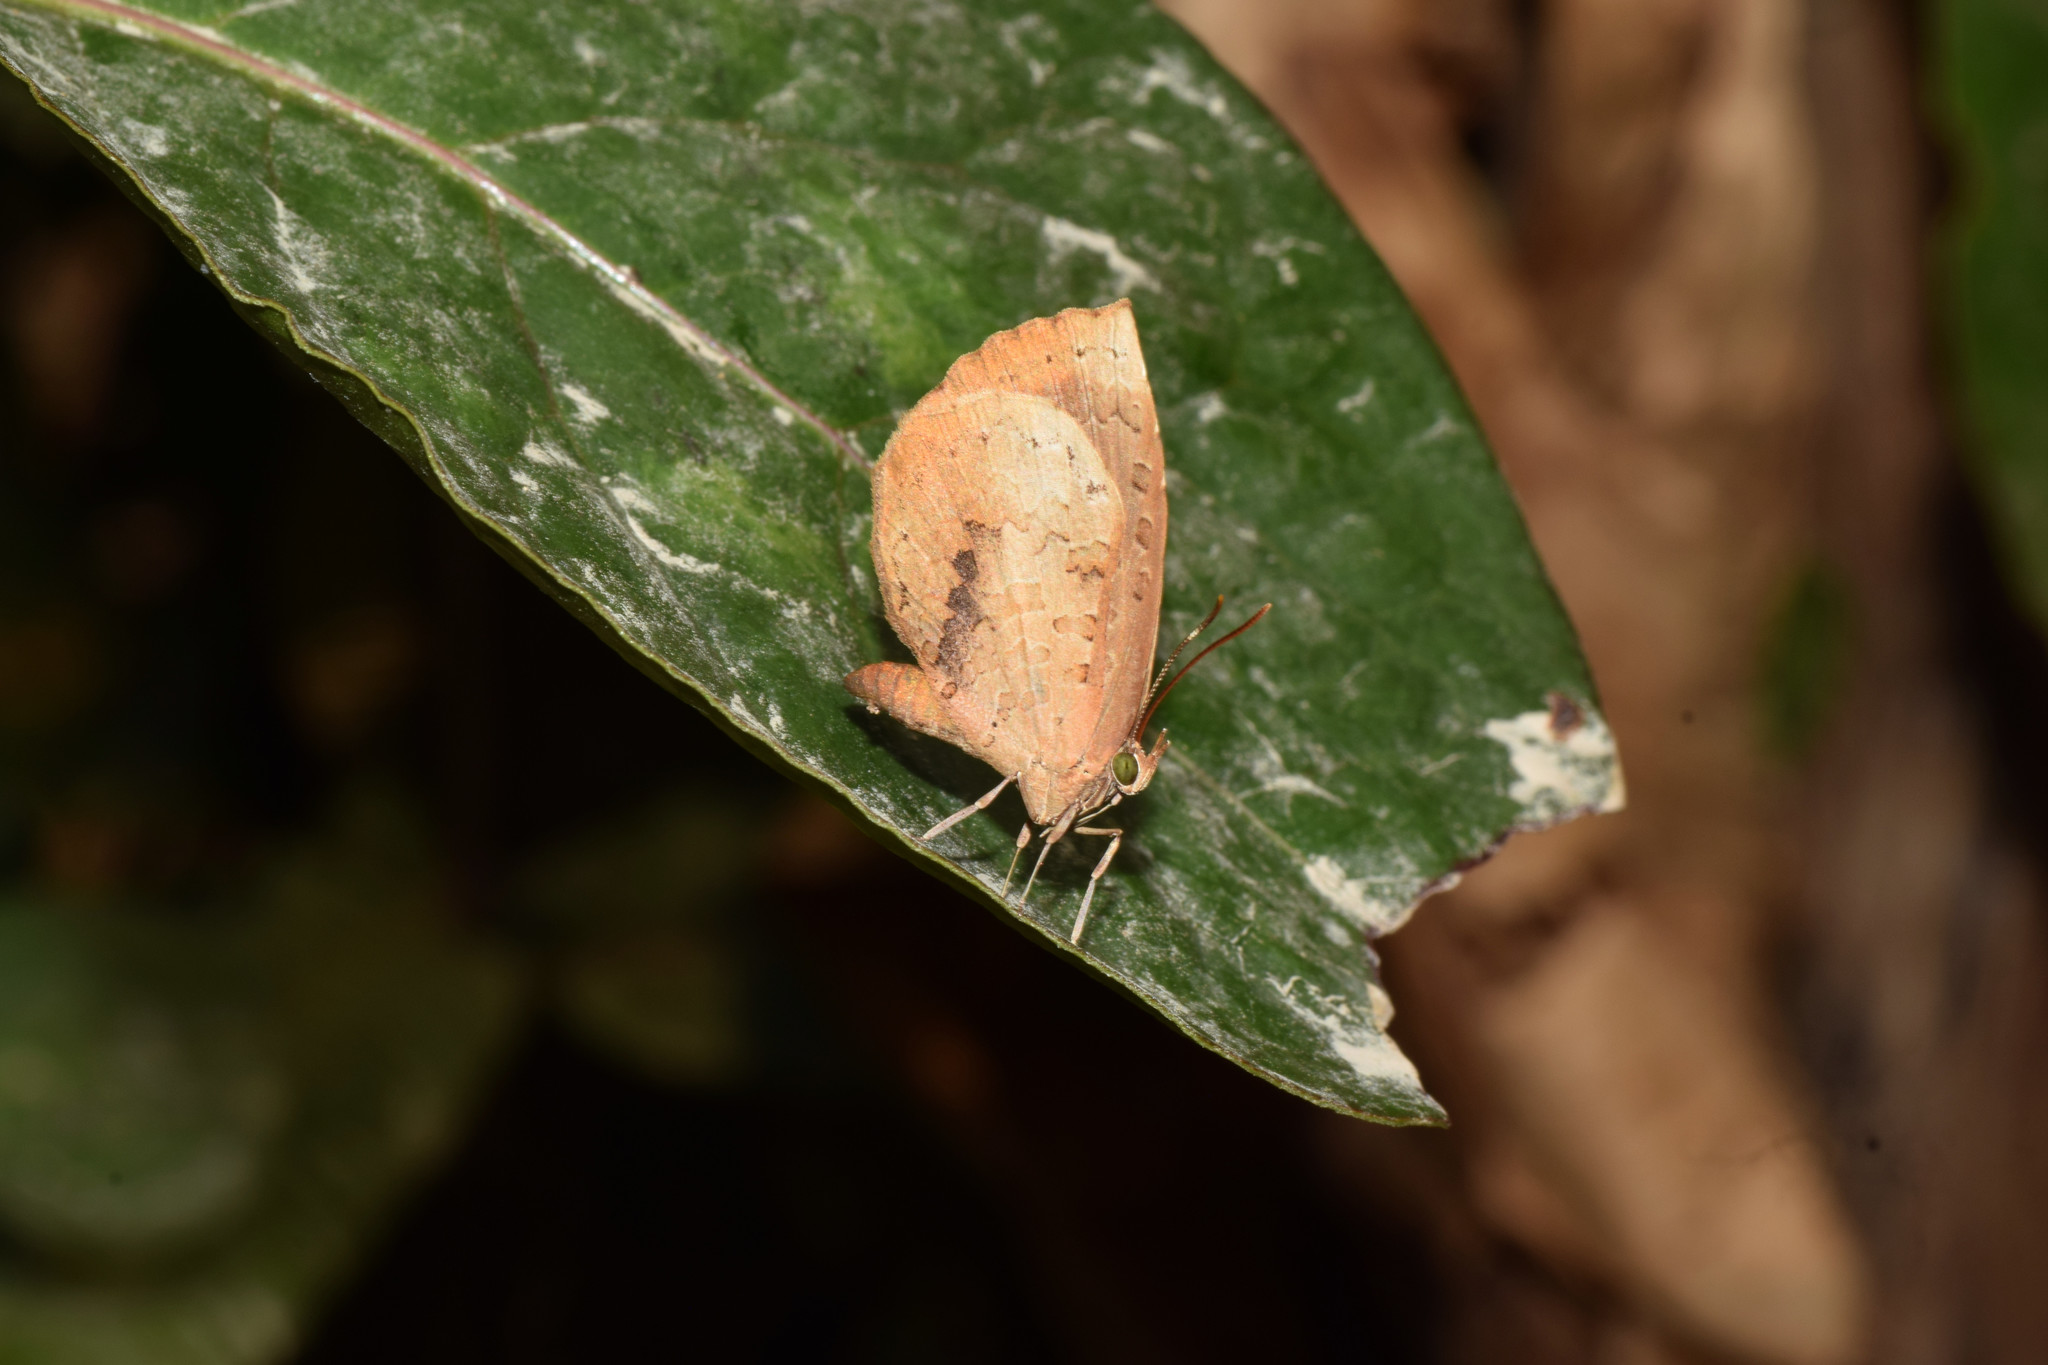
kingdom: Animalia
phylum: Arthropoda
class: Insecta
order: Lepidoptera
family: Lycaenidae
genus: Miletus
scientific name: Miletus chinensis
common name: Common brownie
